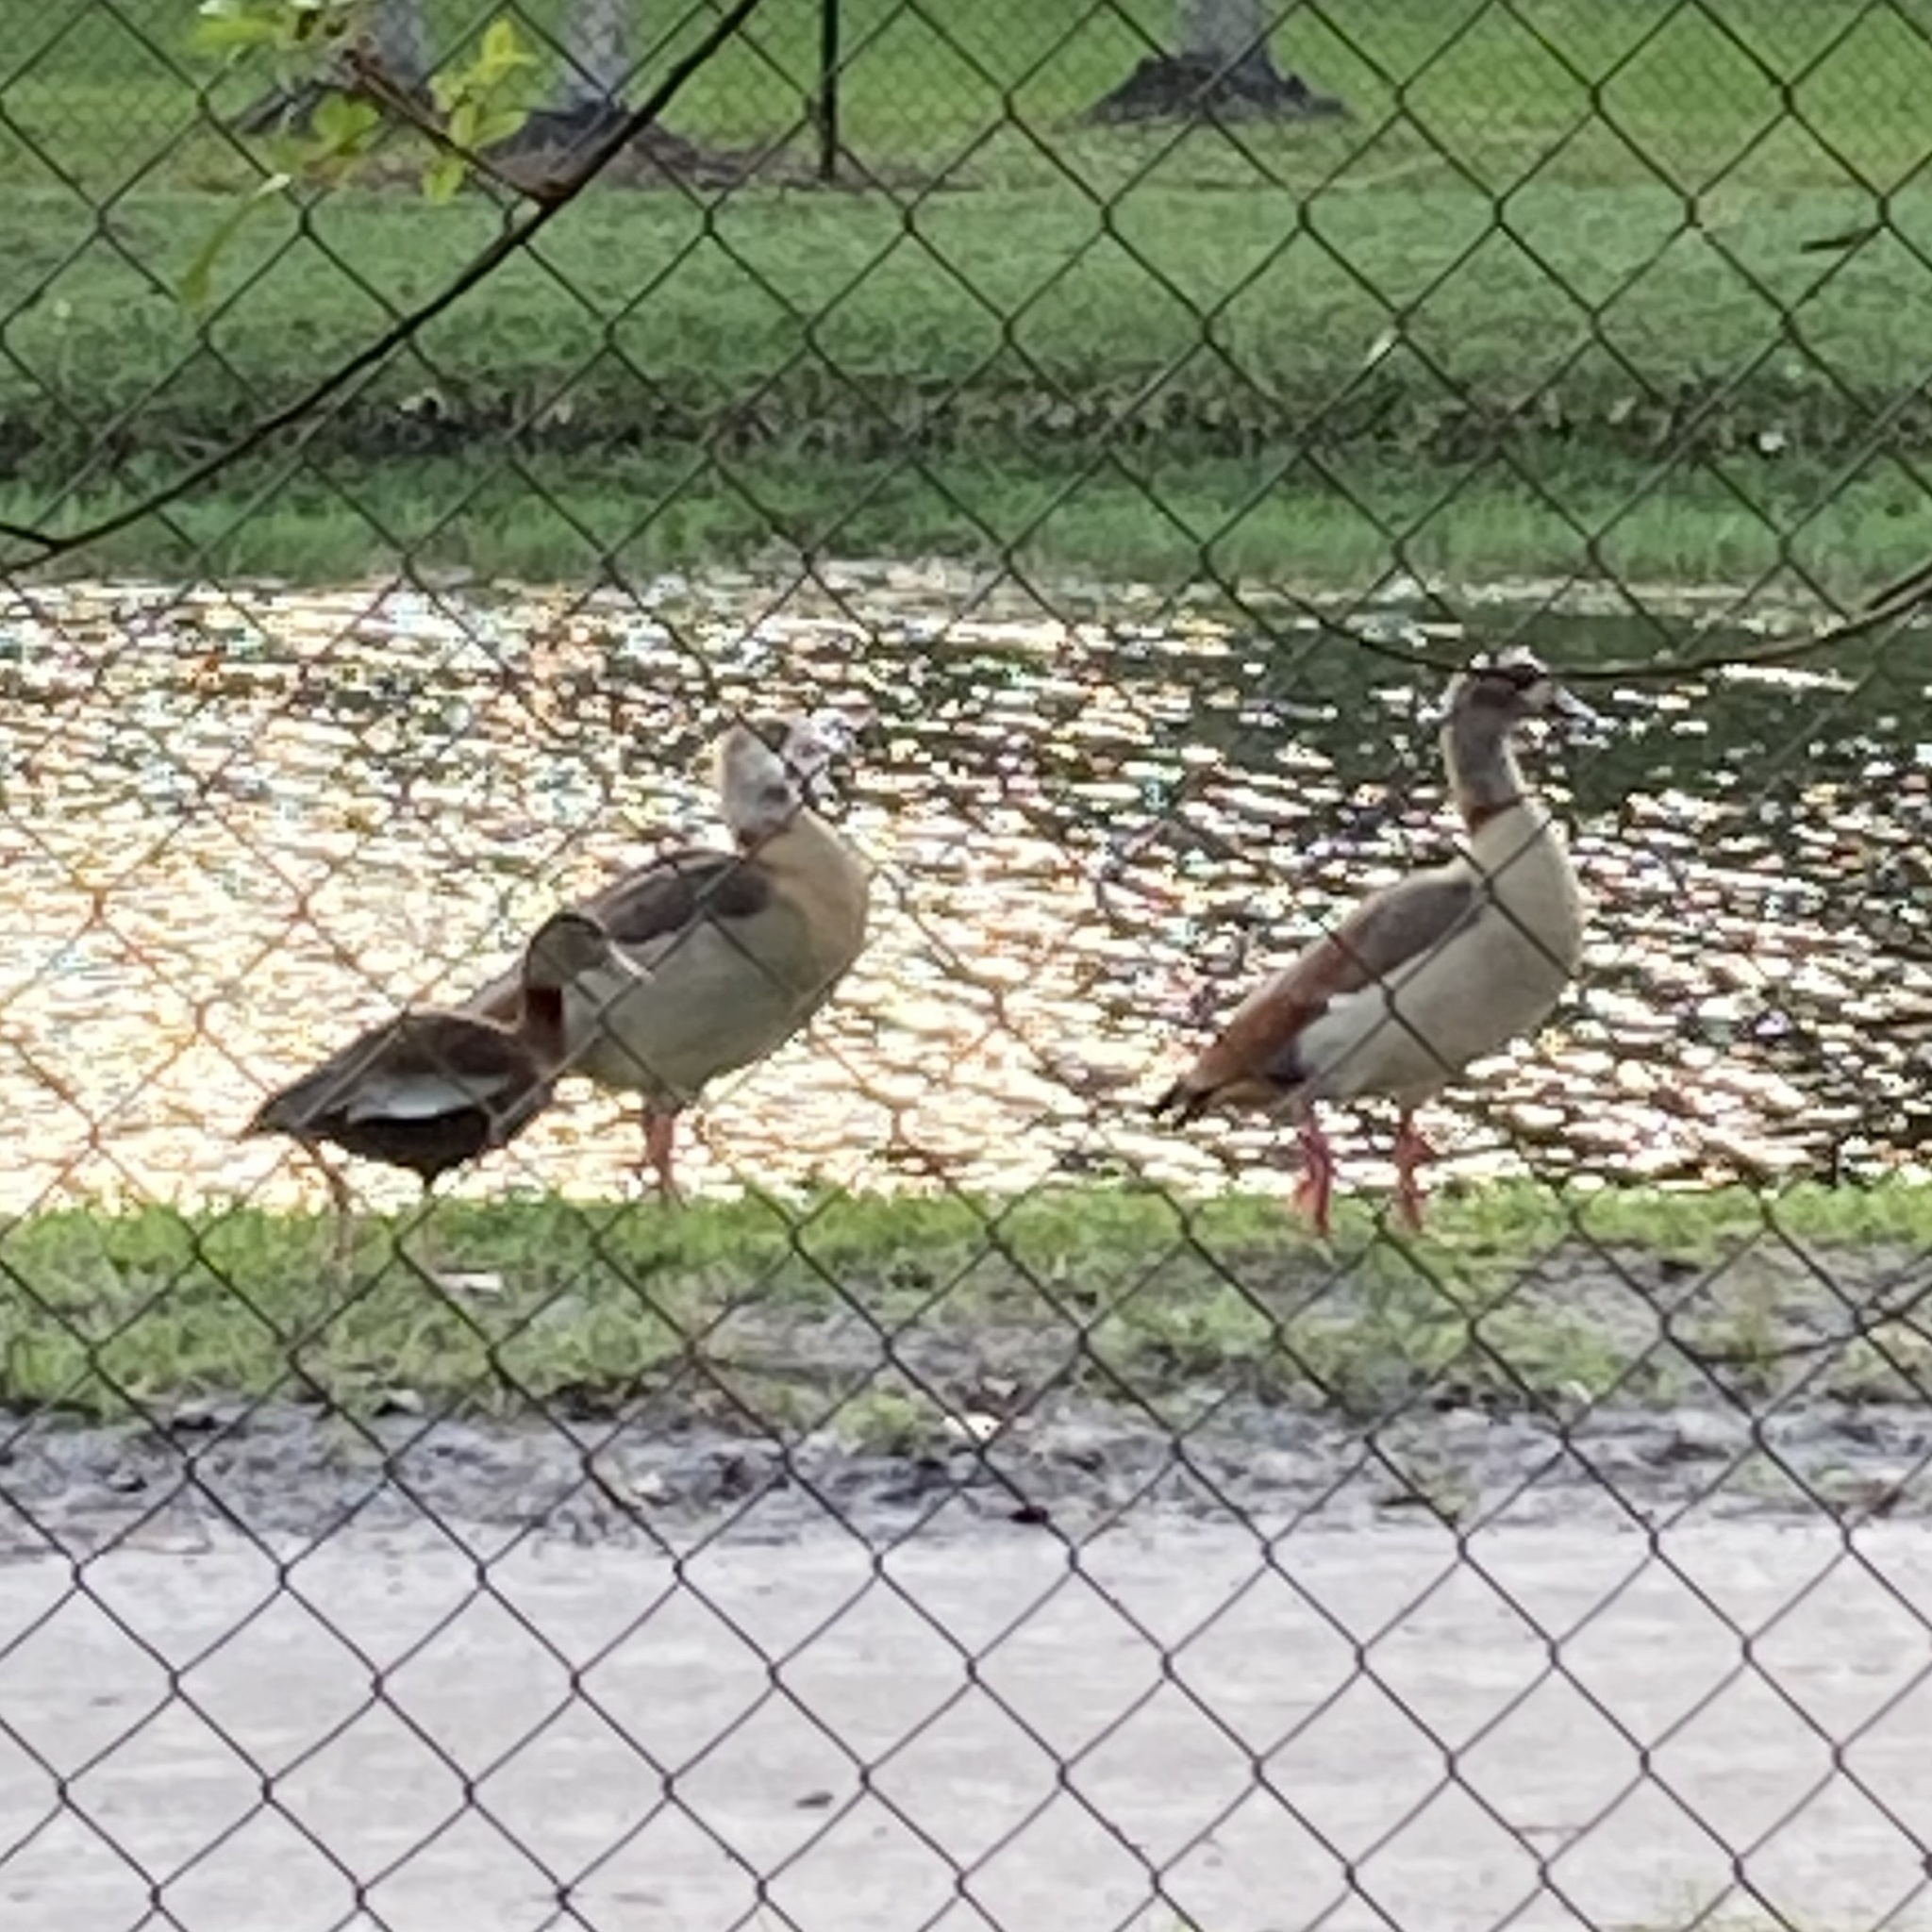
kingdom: Animalia
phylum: Chordata
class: Aves
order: Anseriformes
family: Anatidae
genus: Dendrocygna
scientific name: Dendrocygna autumnalis
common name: Black-bellied whistling duck
